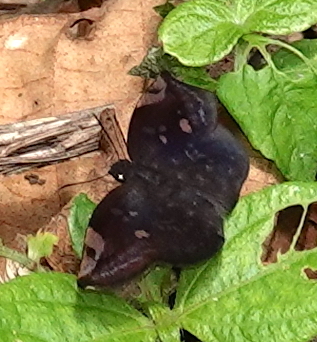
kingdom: Animalia
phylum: Arthropoda
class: Insecta
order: Lepidoptera
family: Hesperiidae
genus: Achlyodes
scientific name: Achlyodes thraso
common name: Sickle-winged skipper
